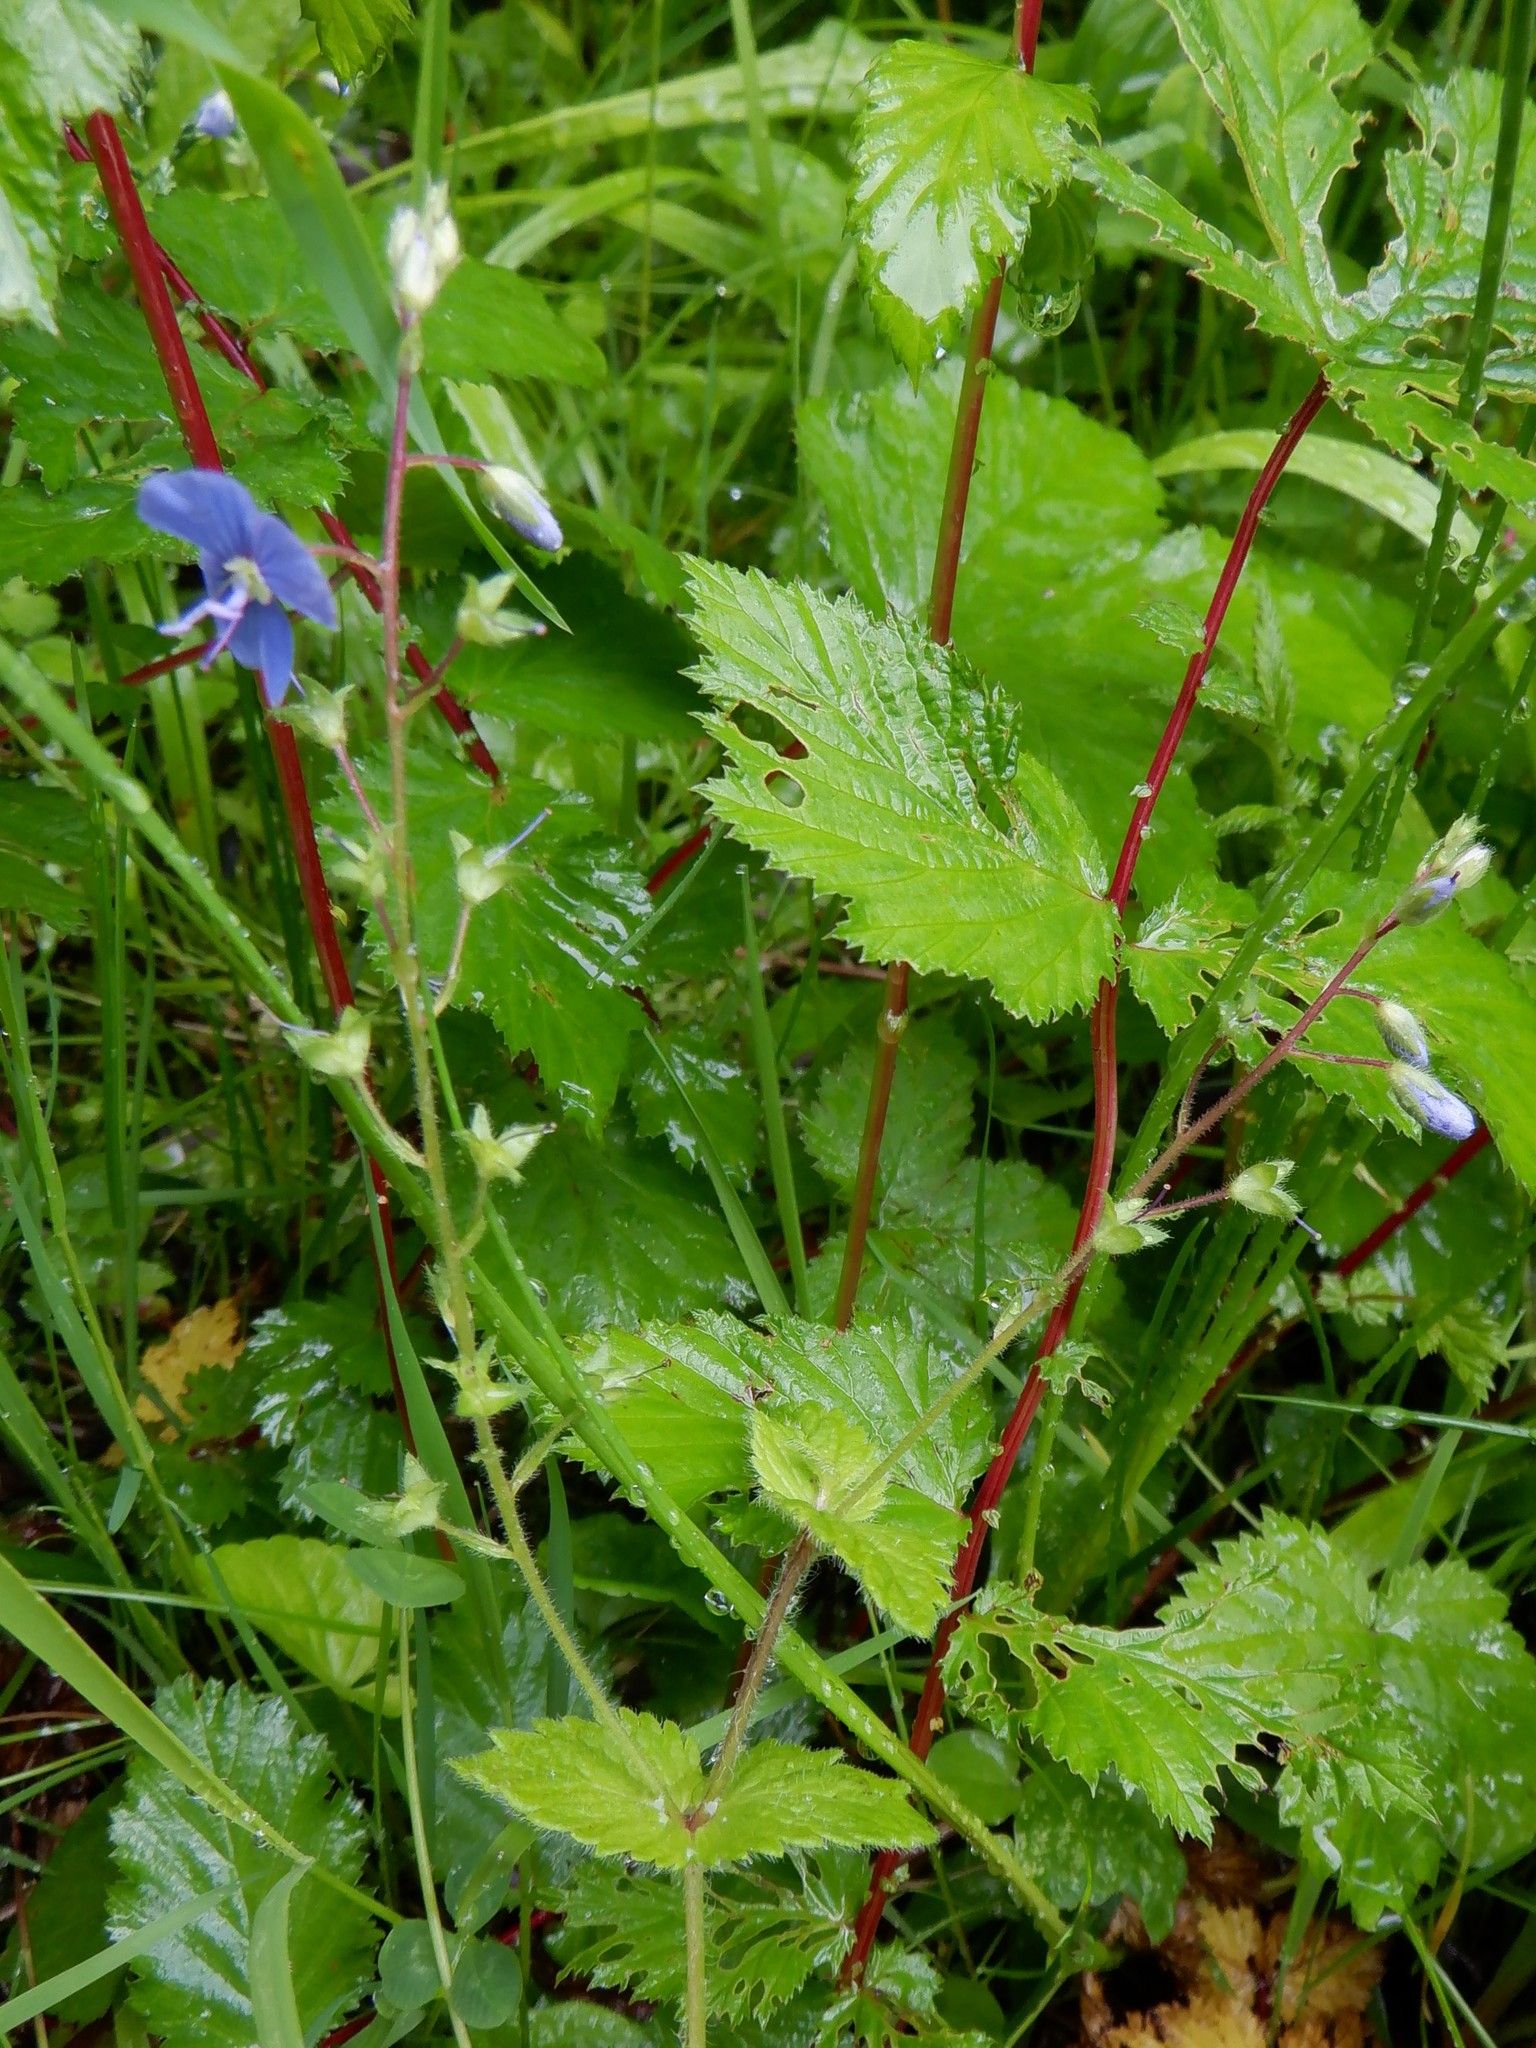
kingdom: Plantae
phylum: Tracheophyta
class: Magnoliopsida
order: Lamiales
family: Plantaginaceae
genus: Veronica
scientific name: Veronica chamaedrys
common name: Germander speedwell
